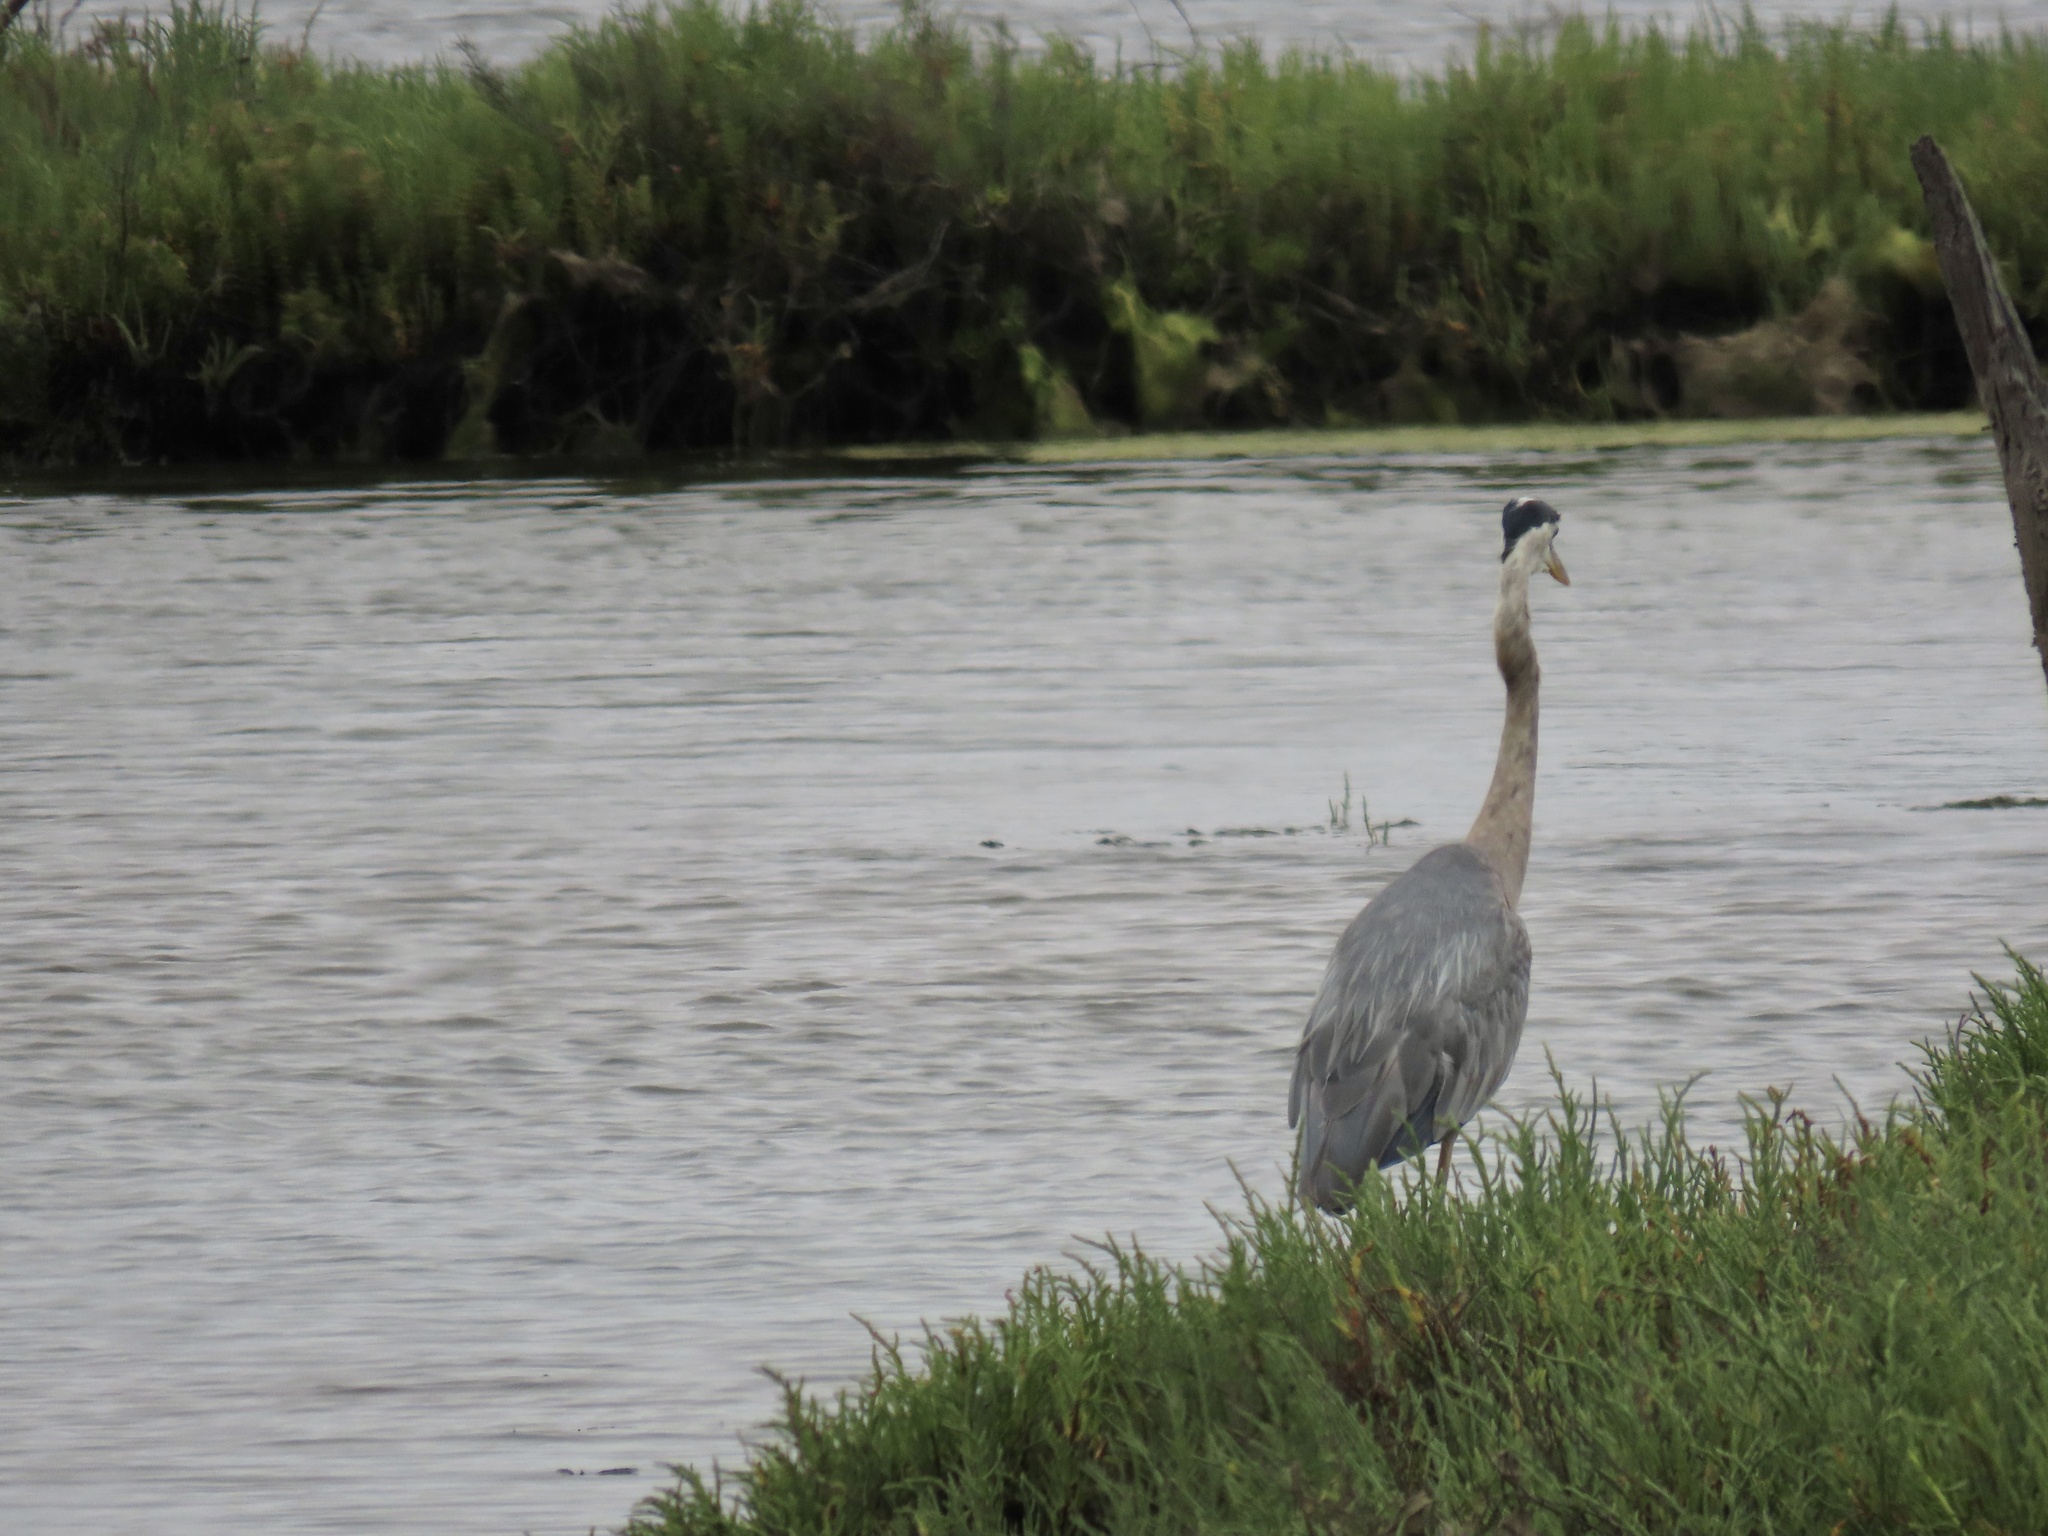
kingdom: Animalia
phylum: Chordata
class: Aves
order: Pelecaniformes
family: Ardeidae
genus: Ardea
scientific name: Ardea herodias
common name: Great blue heron
